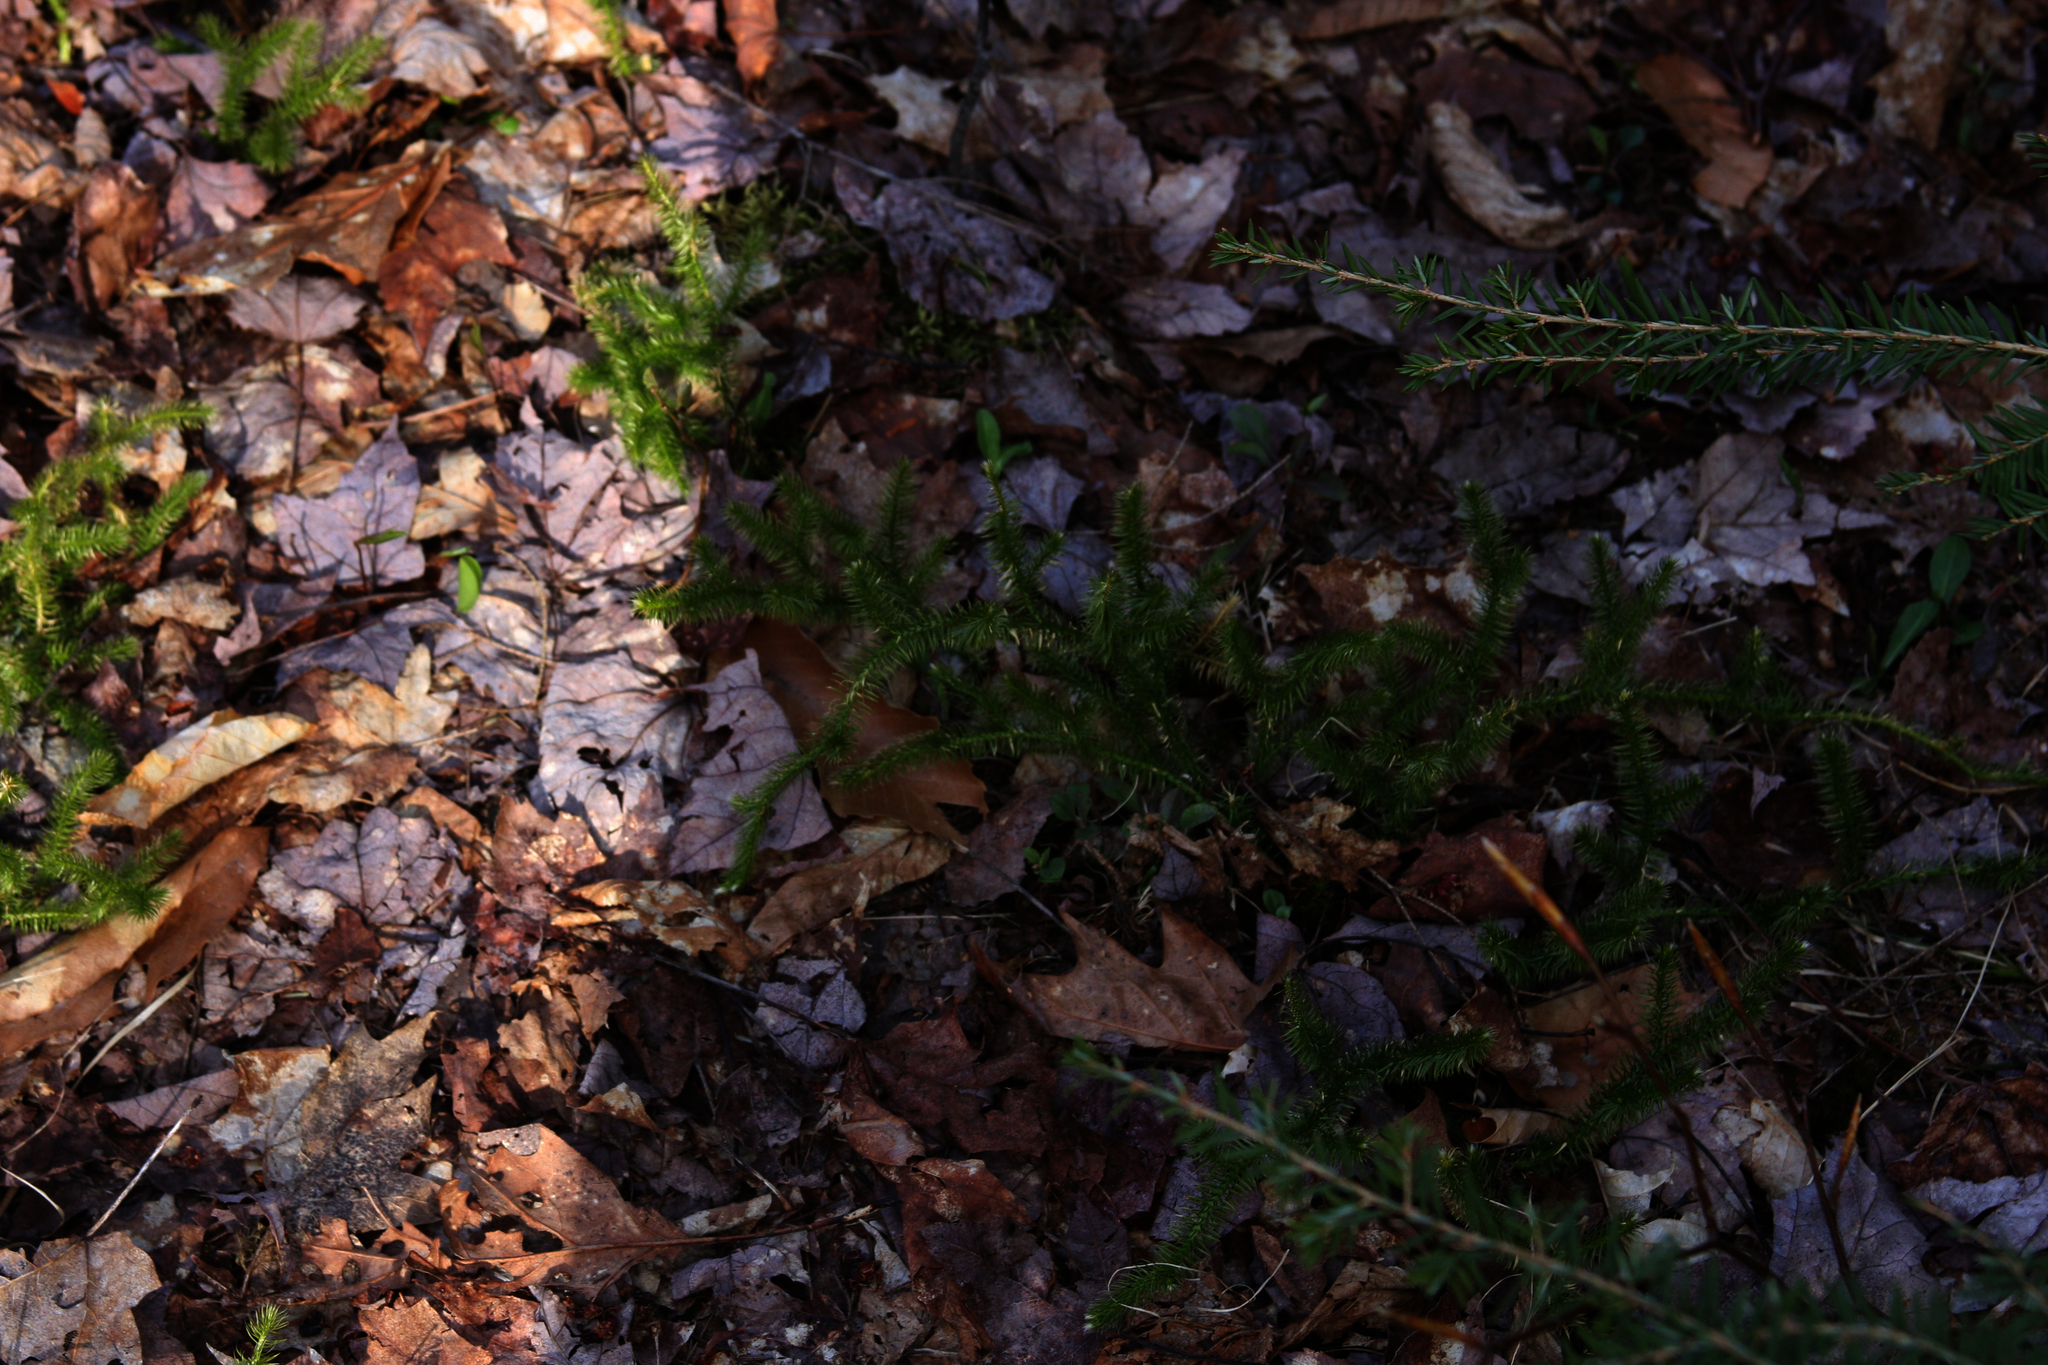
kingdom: Plantae
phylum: Tracheophyta
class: Lycopodiopsida
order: Lycopodiales
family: Lycopodiaceae
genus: Lycopodium
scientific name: Lycopodium clavatum
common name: Stag's-horn clubmoss
